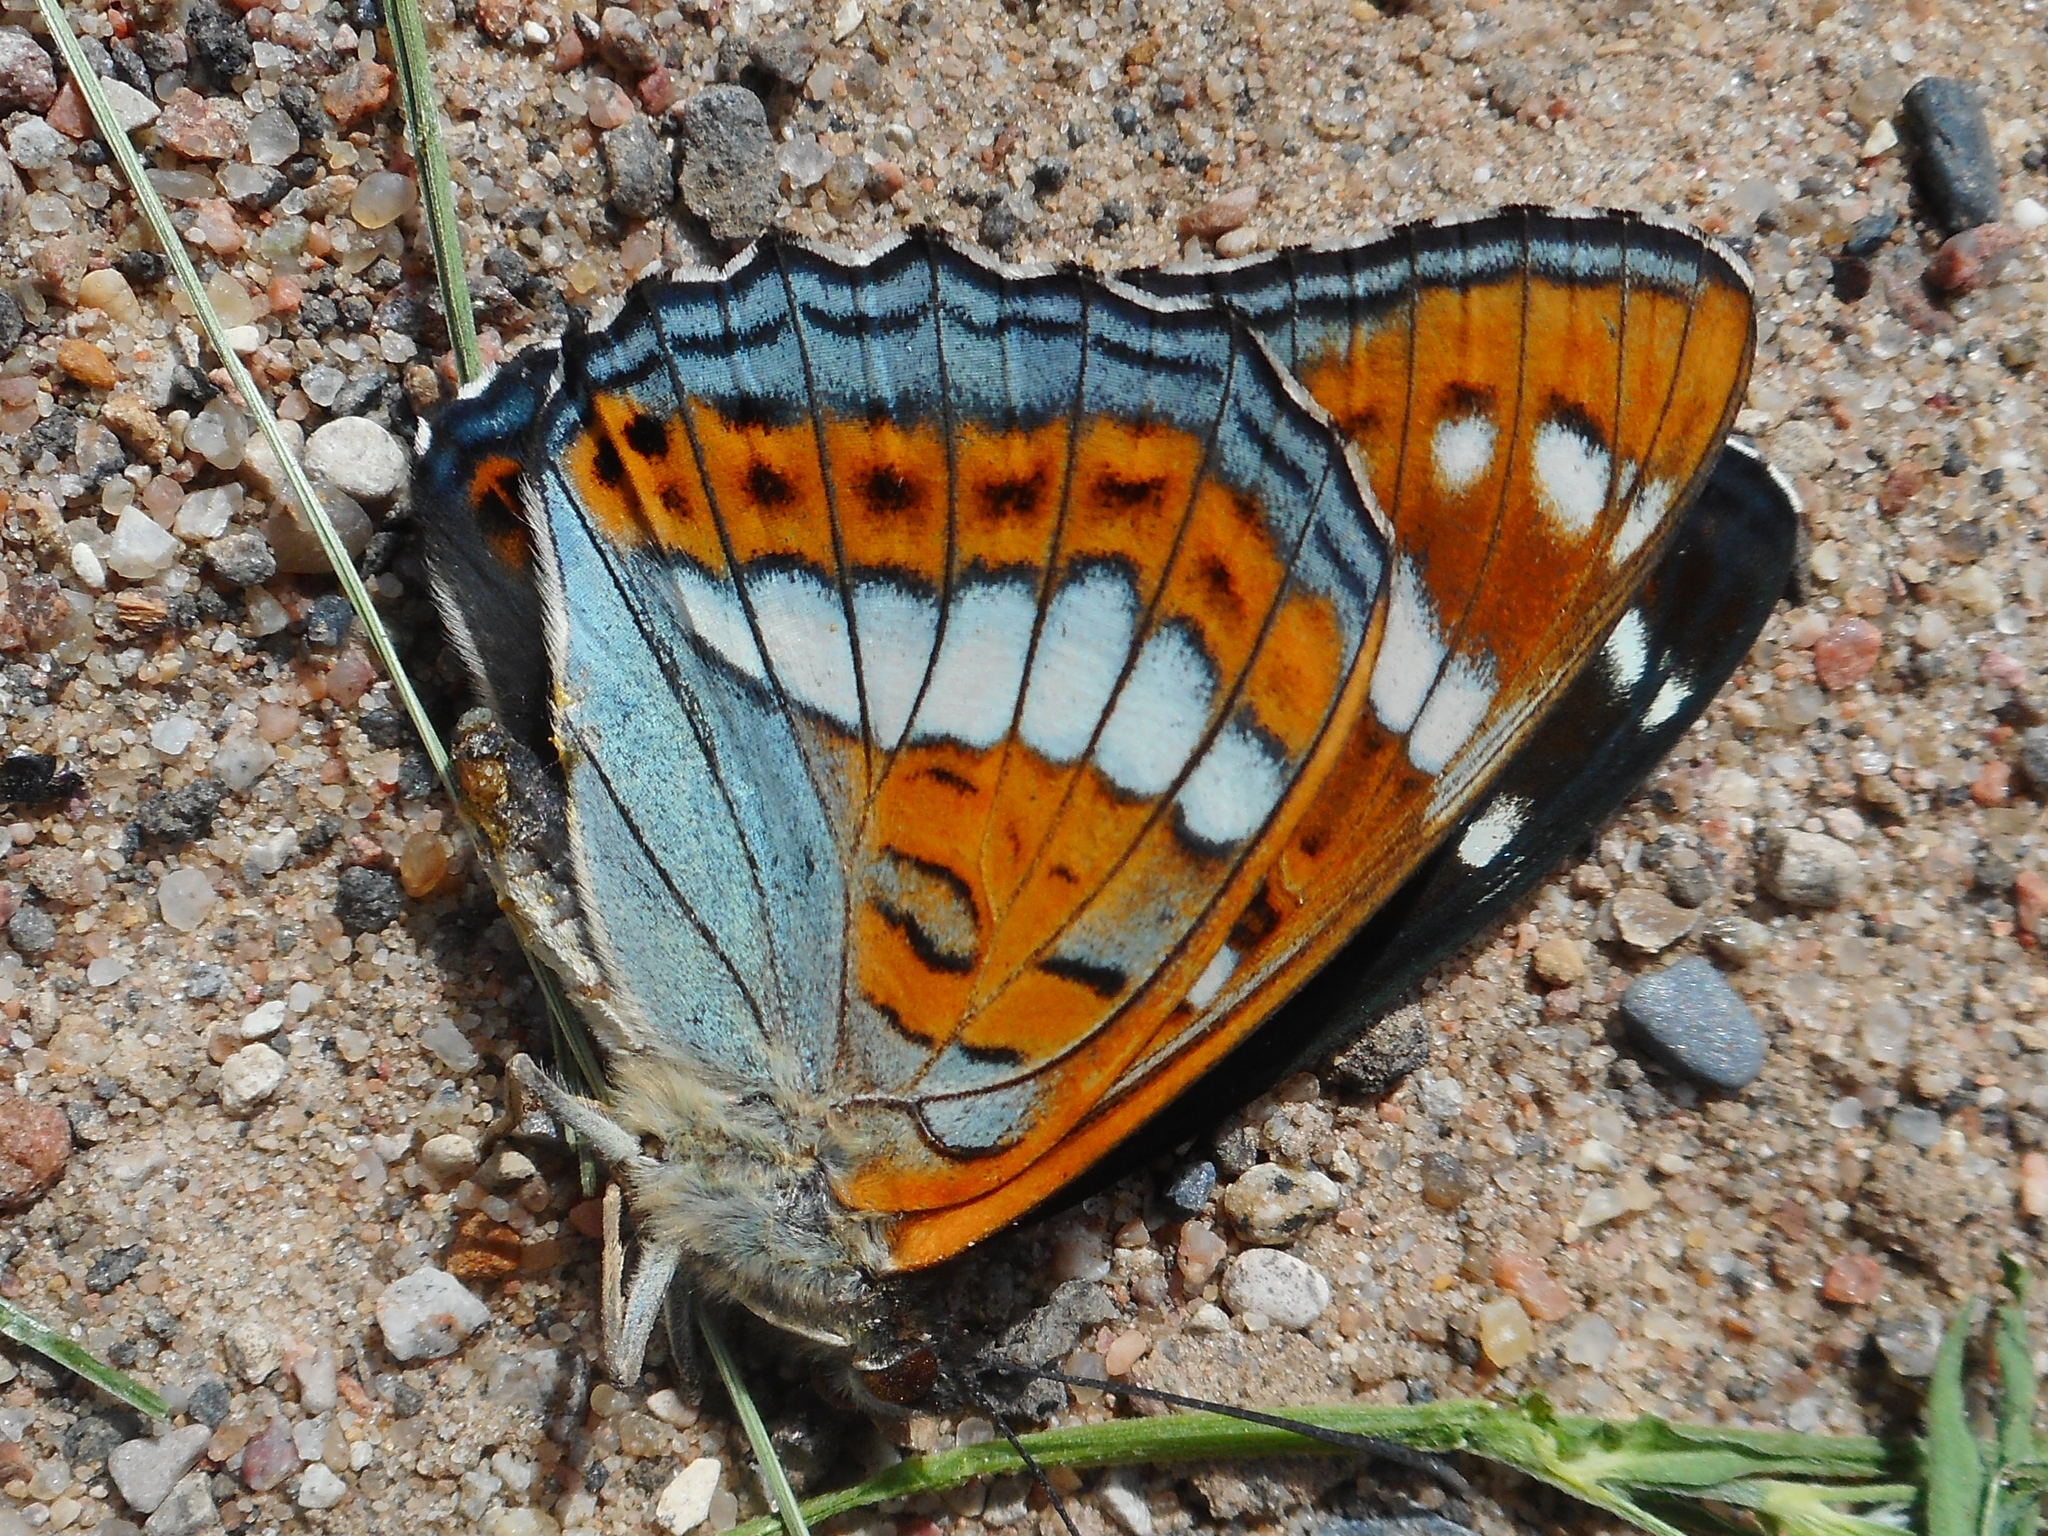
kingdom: Animalia
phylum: Arthropoda
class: Insecta
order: Lepidoptera
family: Nymphalidae
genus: Limenitis
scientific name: Limenitis populi
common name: Poplar admiral
